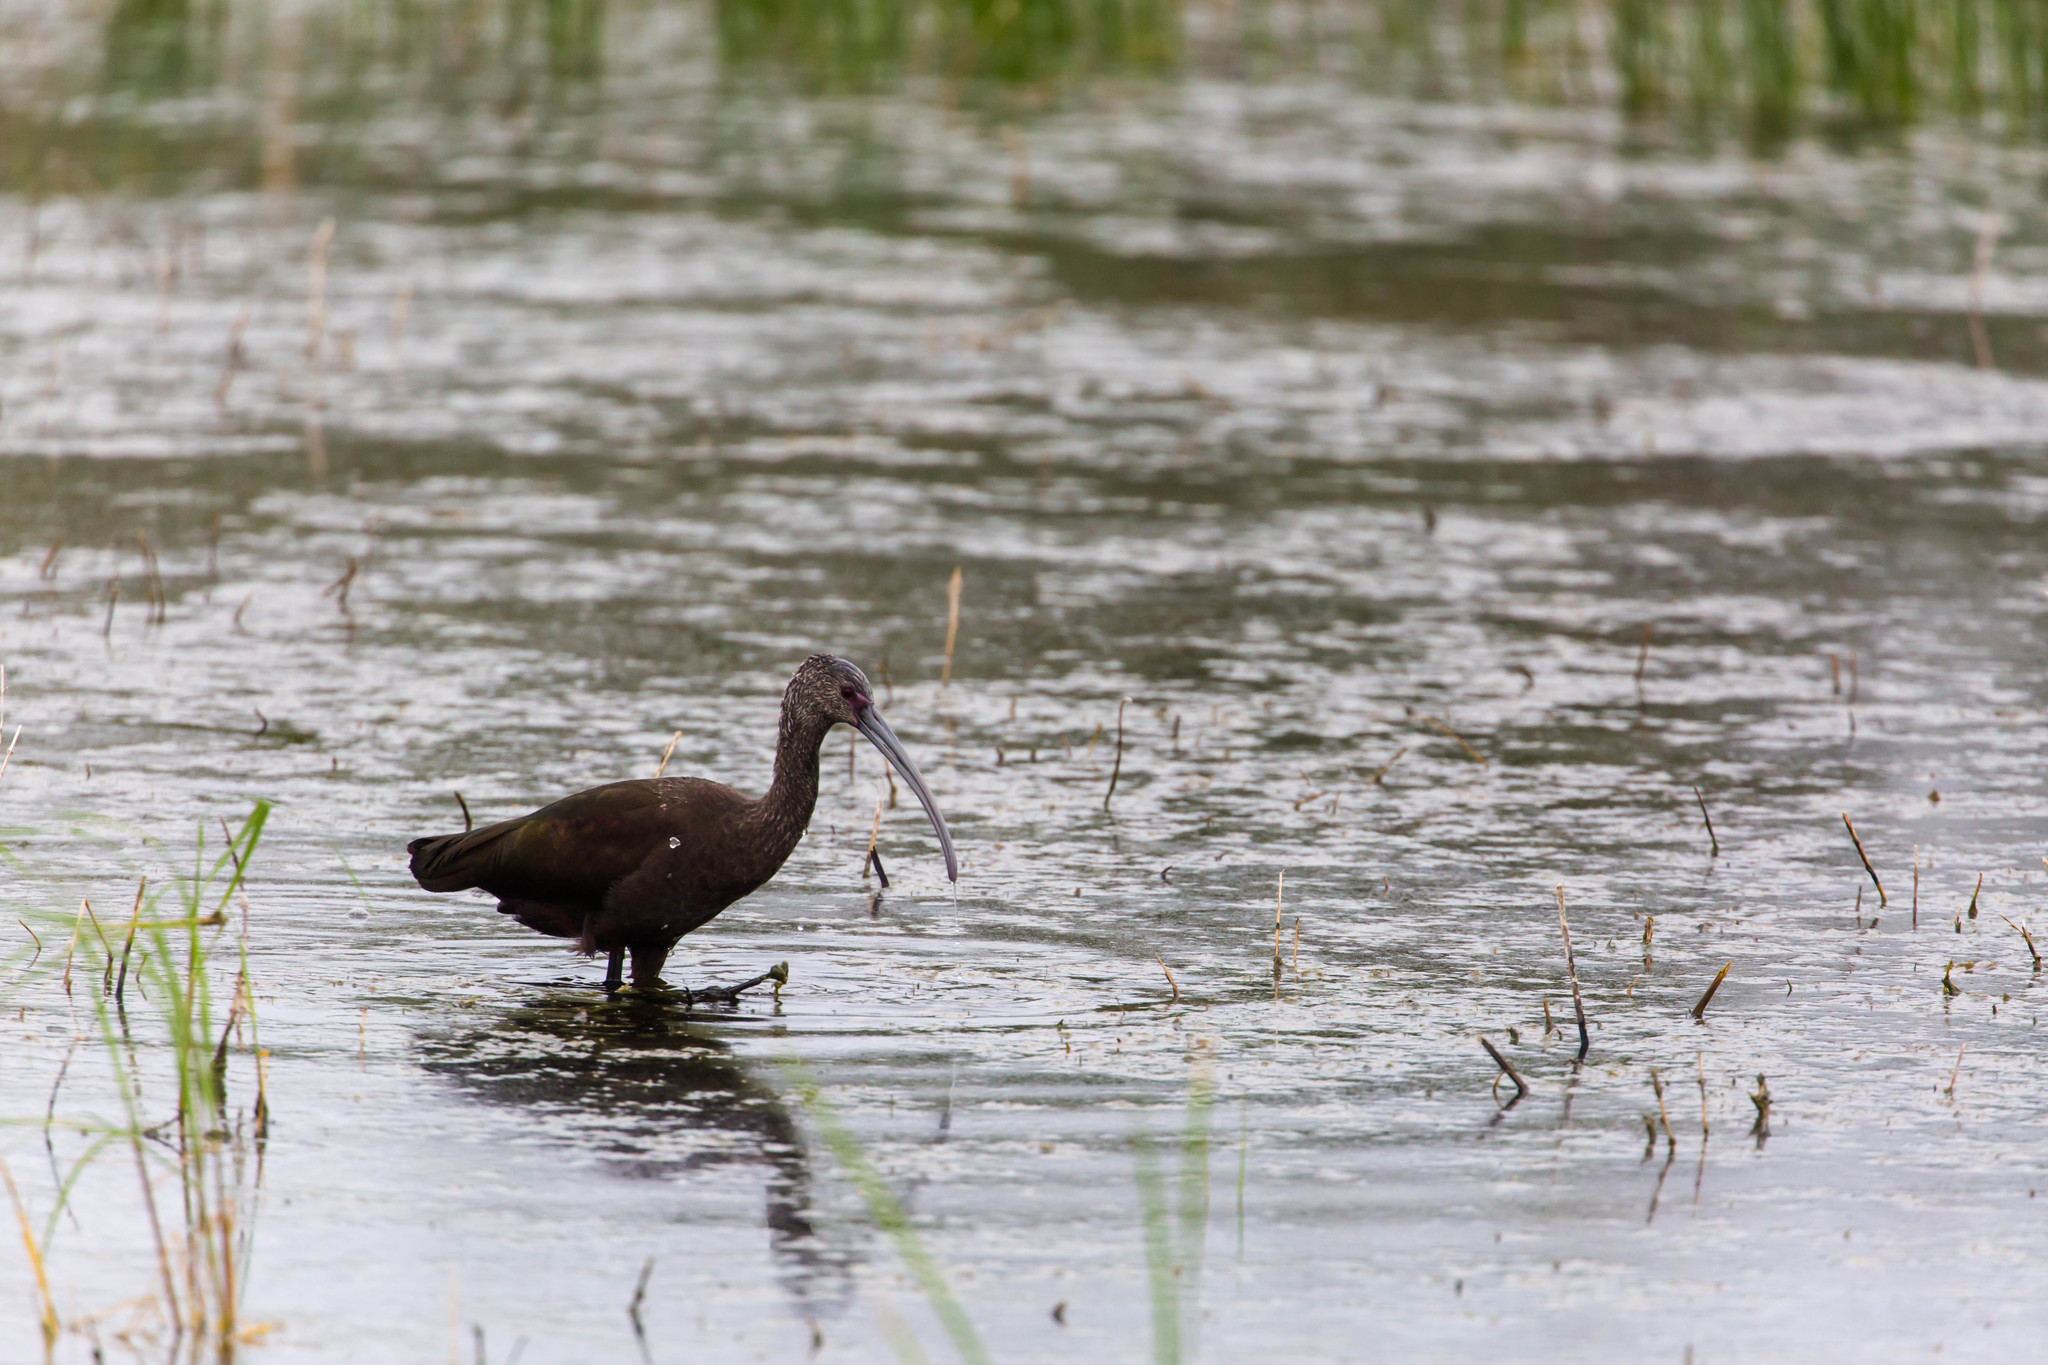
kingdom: Animalia
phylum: Chordata
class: Aves
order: Pelecaniformes
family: Threskiornithidae
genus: Plegadis
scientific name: Plegadis chihi
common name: White-faced ibis
